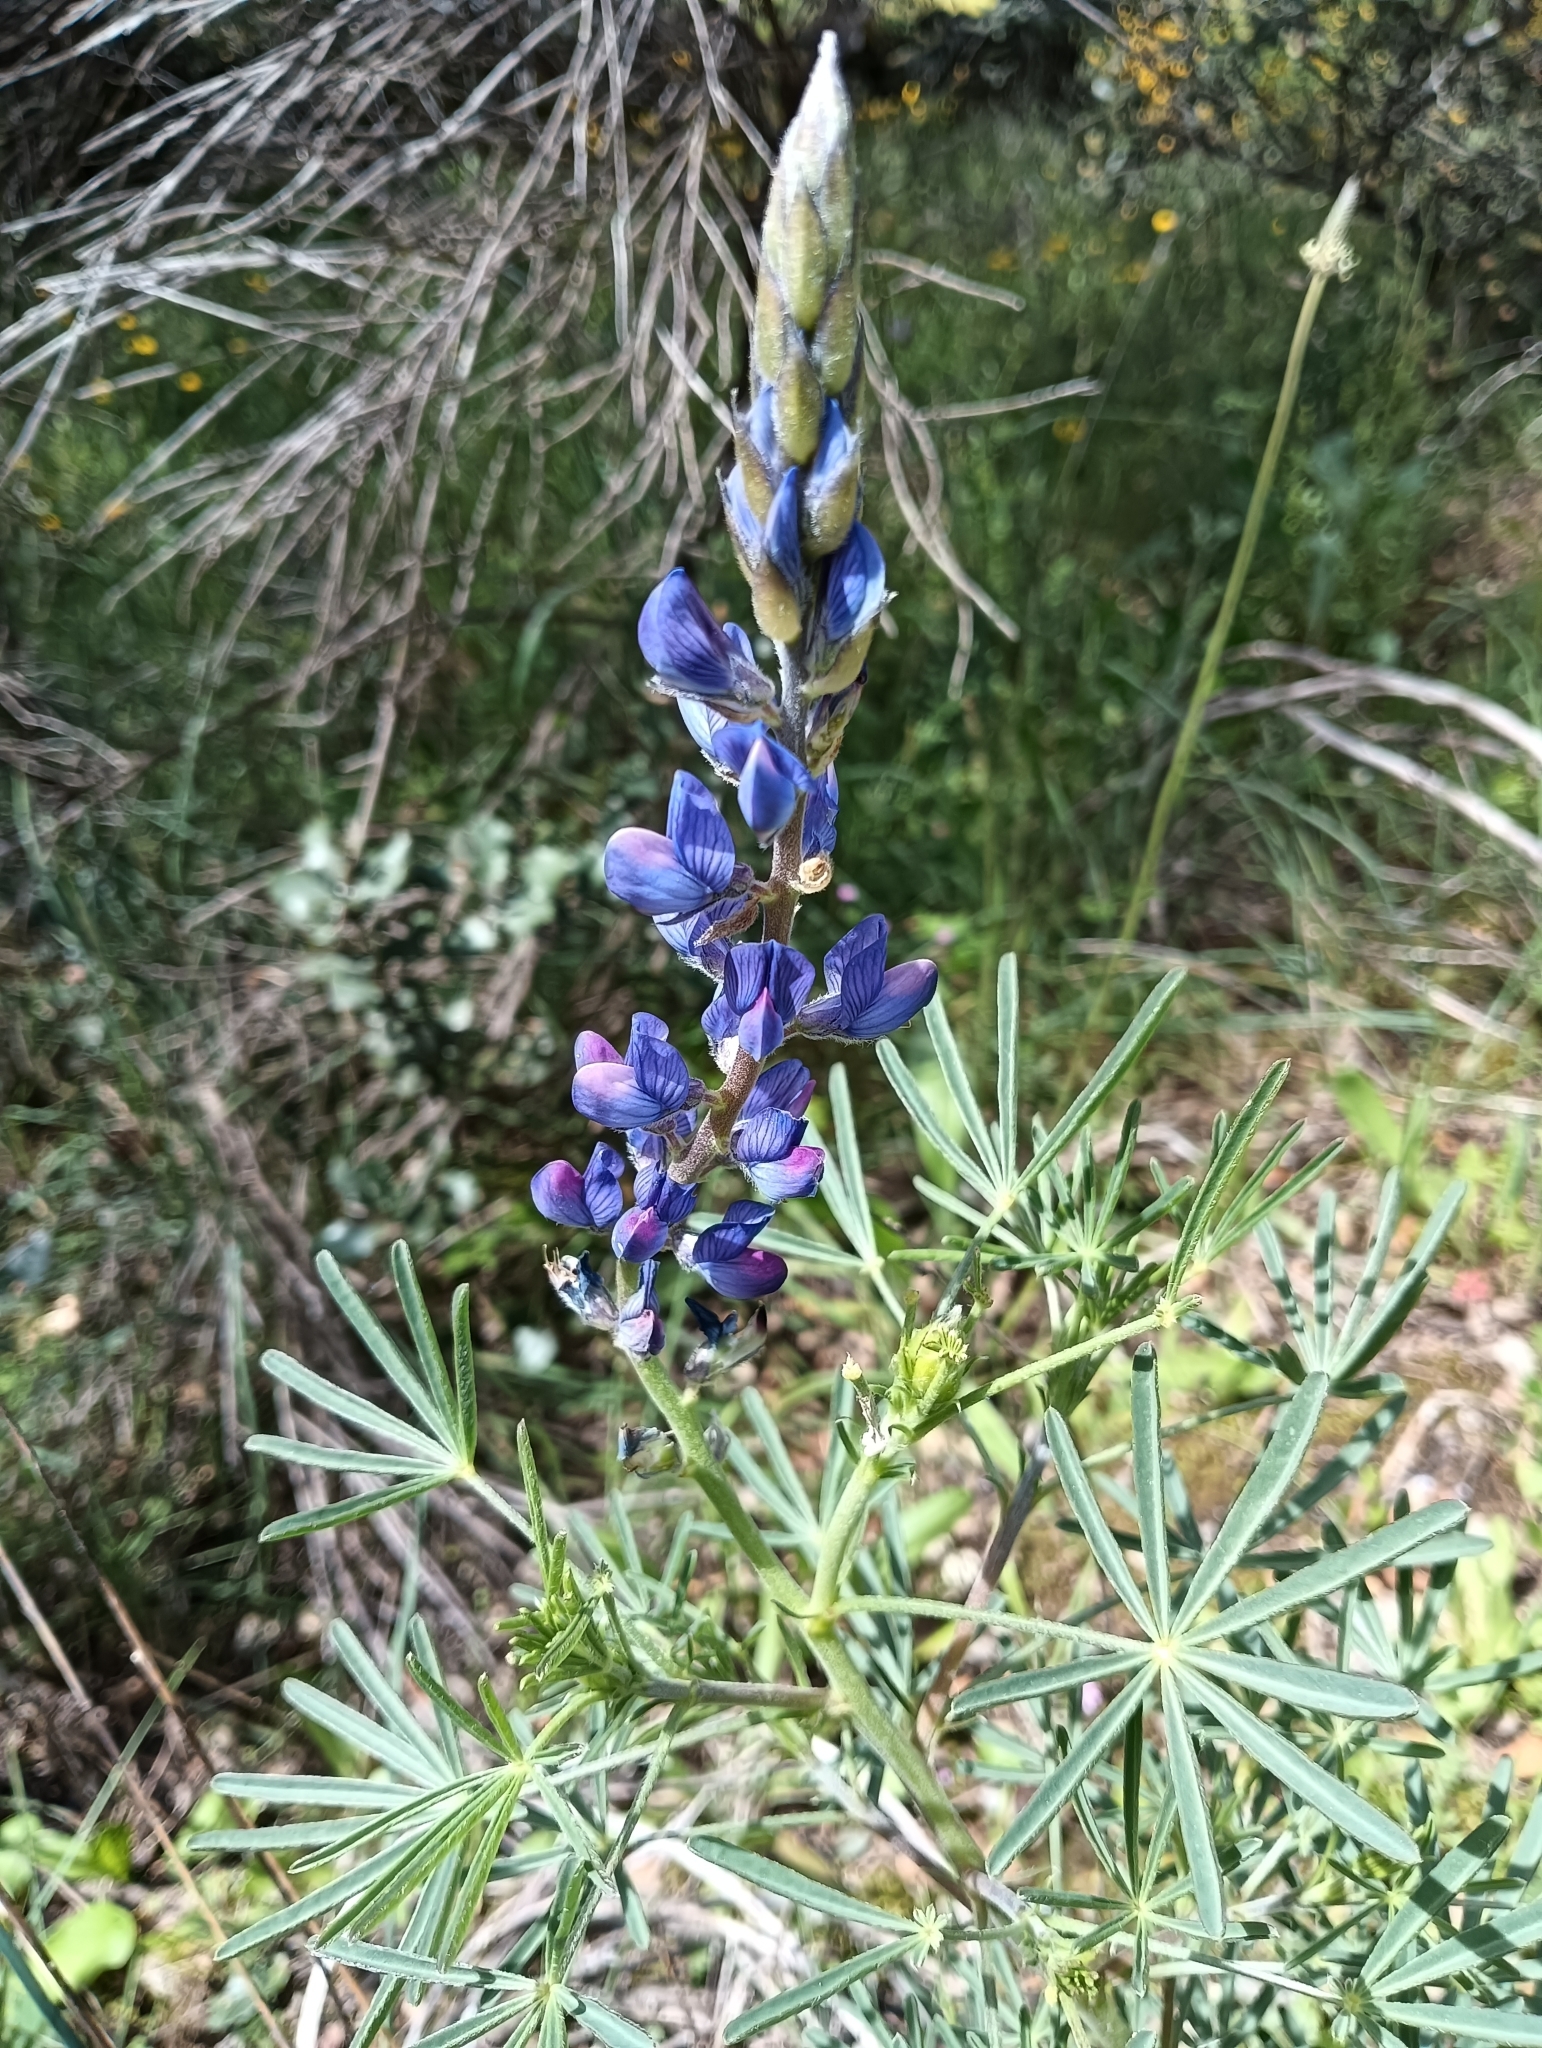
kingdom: Plantae
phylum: Tracheophyta
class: Magnoliopsida
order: Fabales
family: Fabaceae
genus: Lupinus
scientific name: Lupinus angustifolius
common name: Narrow-leaved lupin
